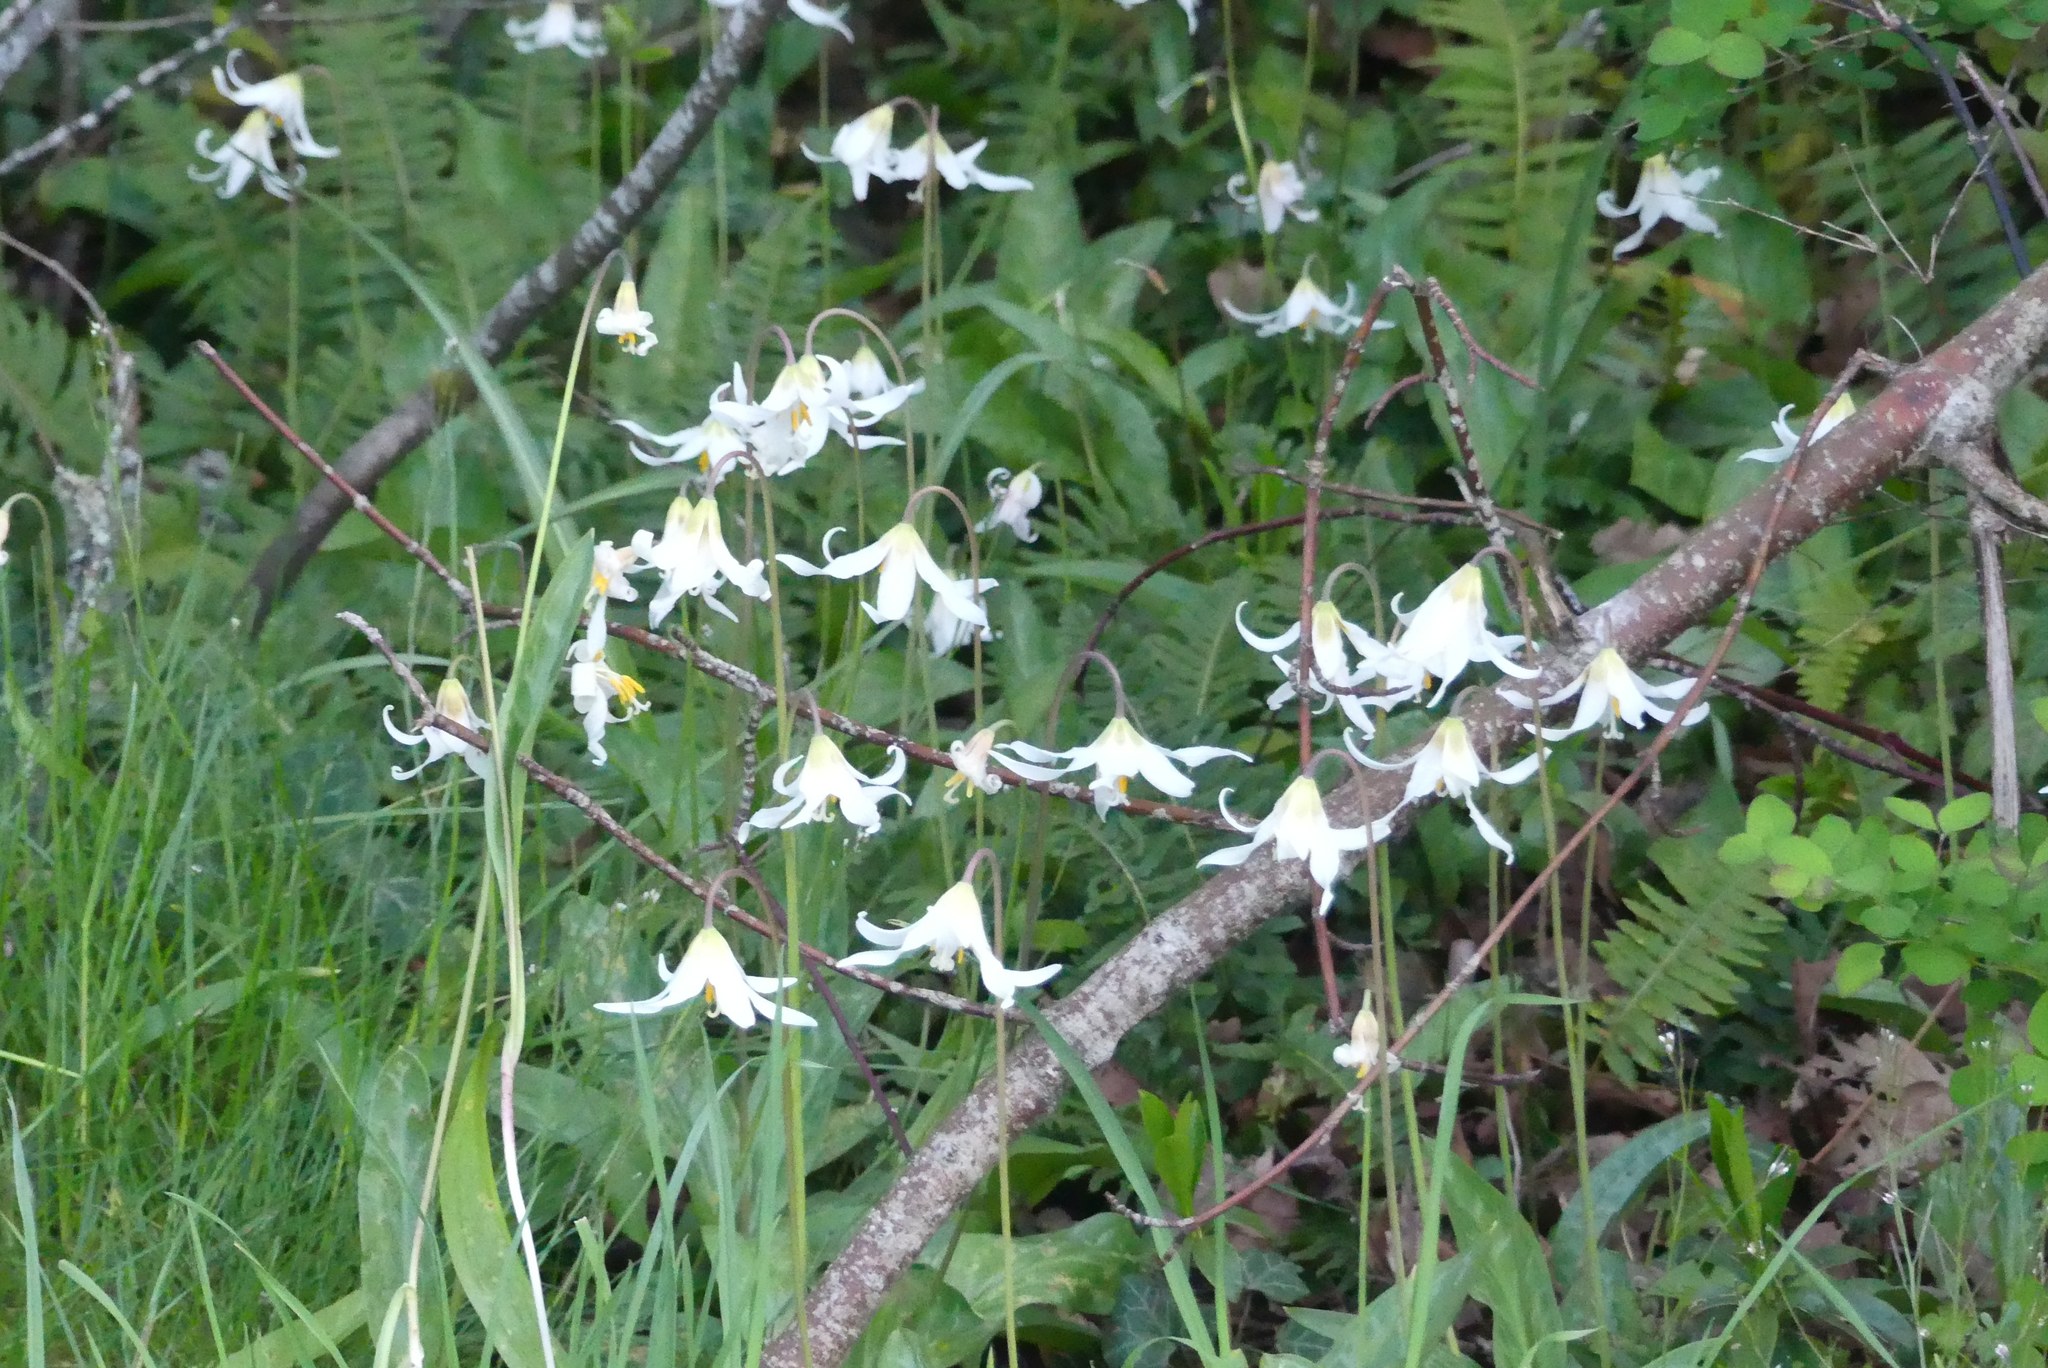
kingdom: Plantae
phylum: Tracheophyta
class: Liliopsida
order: Liliales
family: Liliaceae
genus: Erythronium
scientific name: Erythronium oregonum
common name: Giant adder's-tongue
